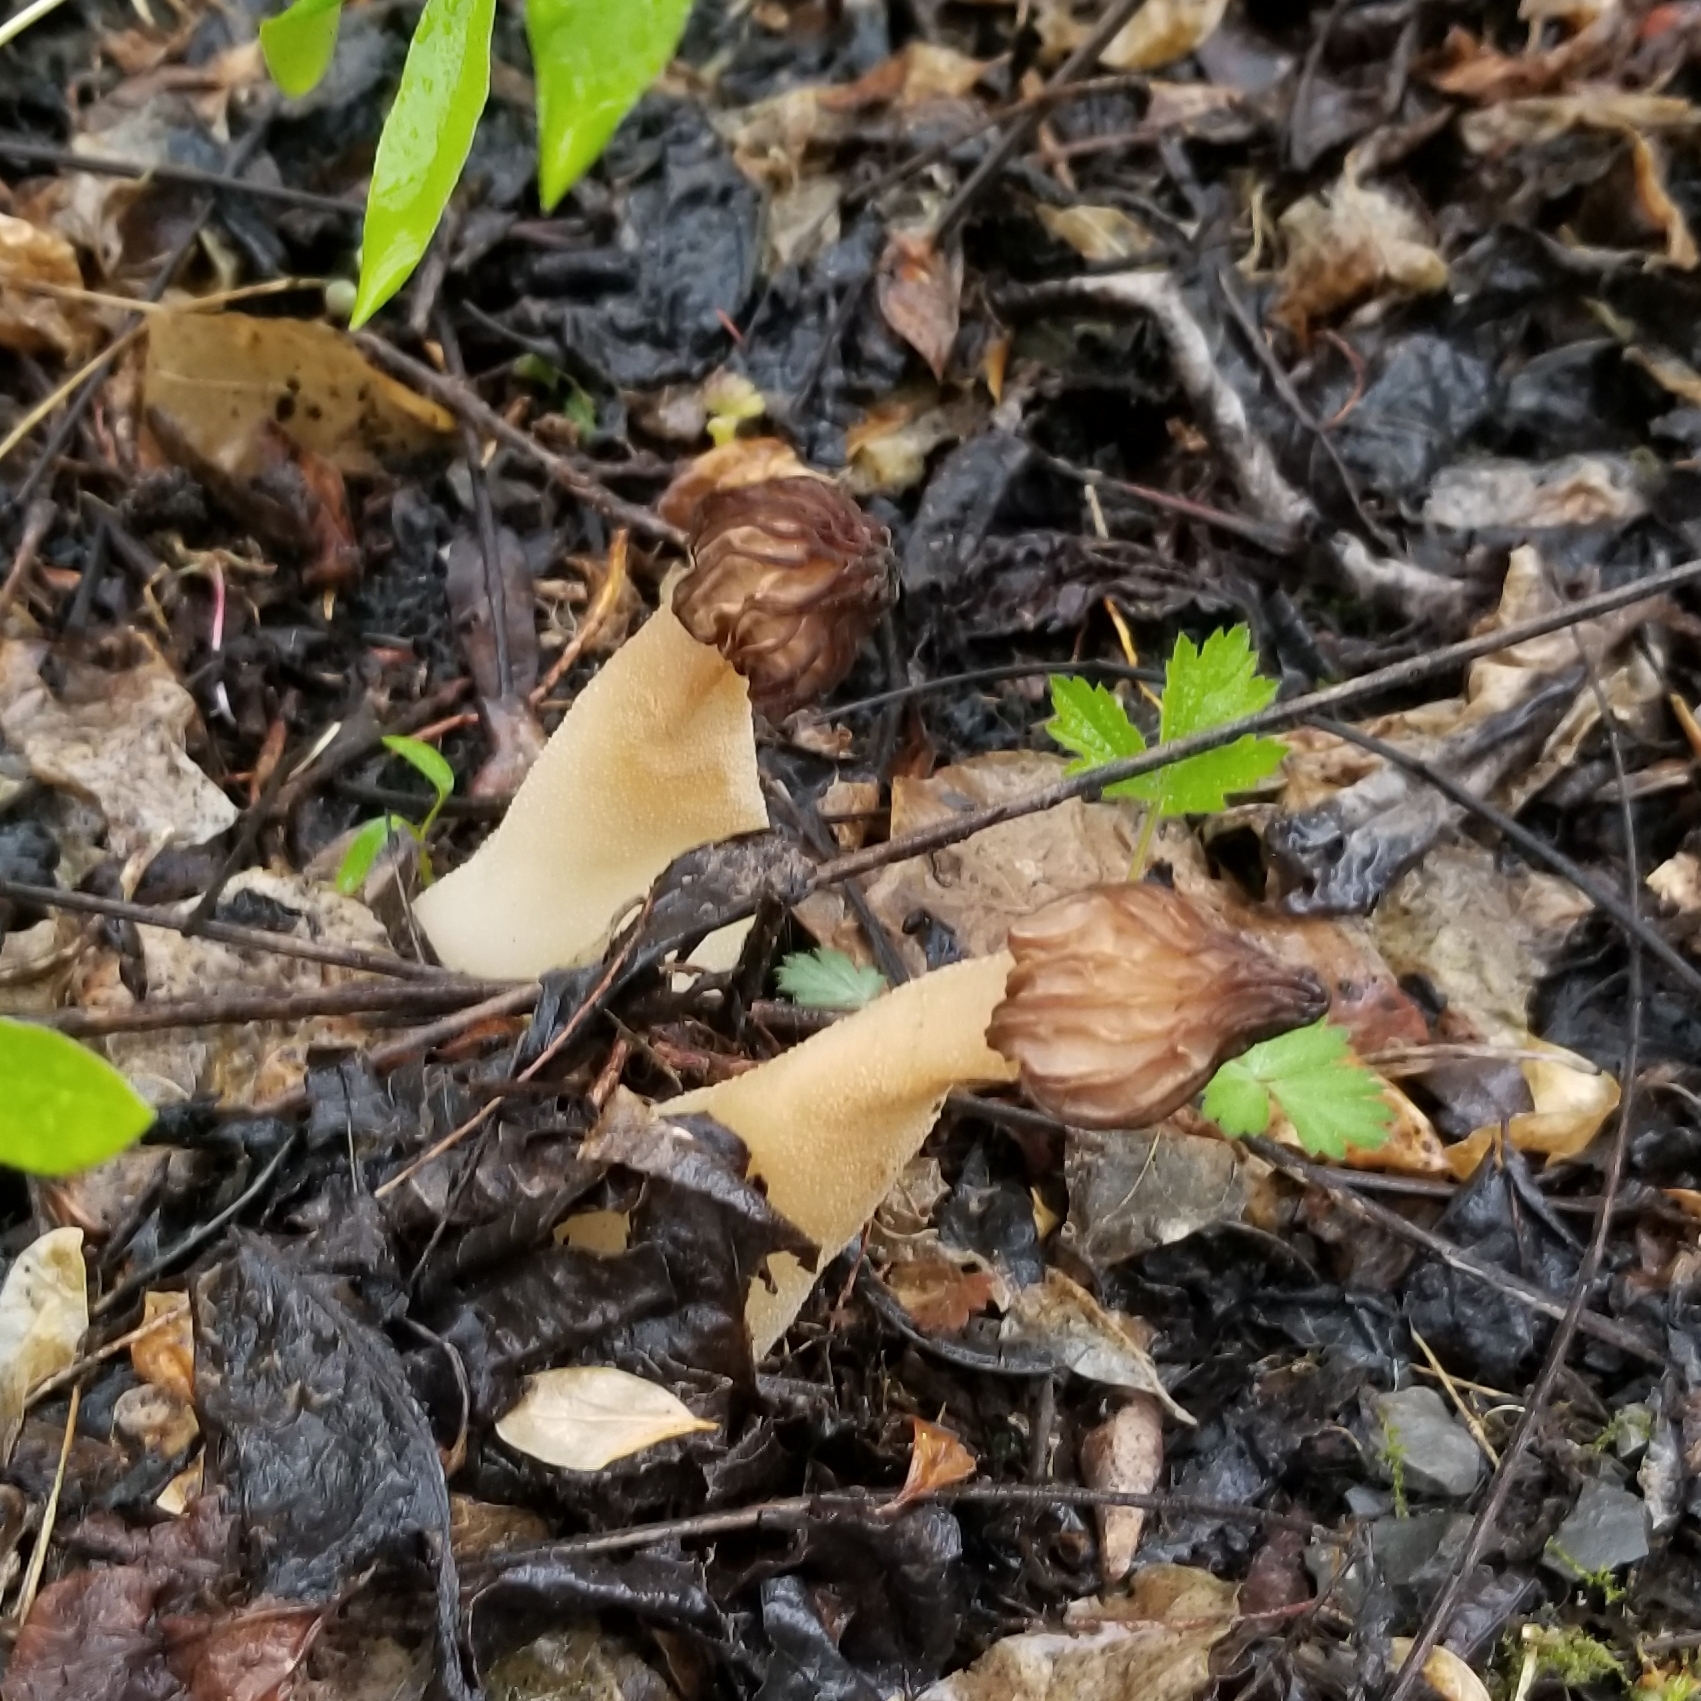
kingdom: Fungi
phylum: Ascomycota
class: Pezizomycetes
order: Pezizales
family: Morchellaceae
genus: Morchella
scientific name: Morchella punctipes
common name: Half-free morel
